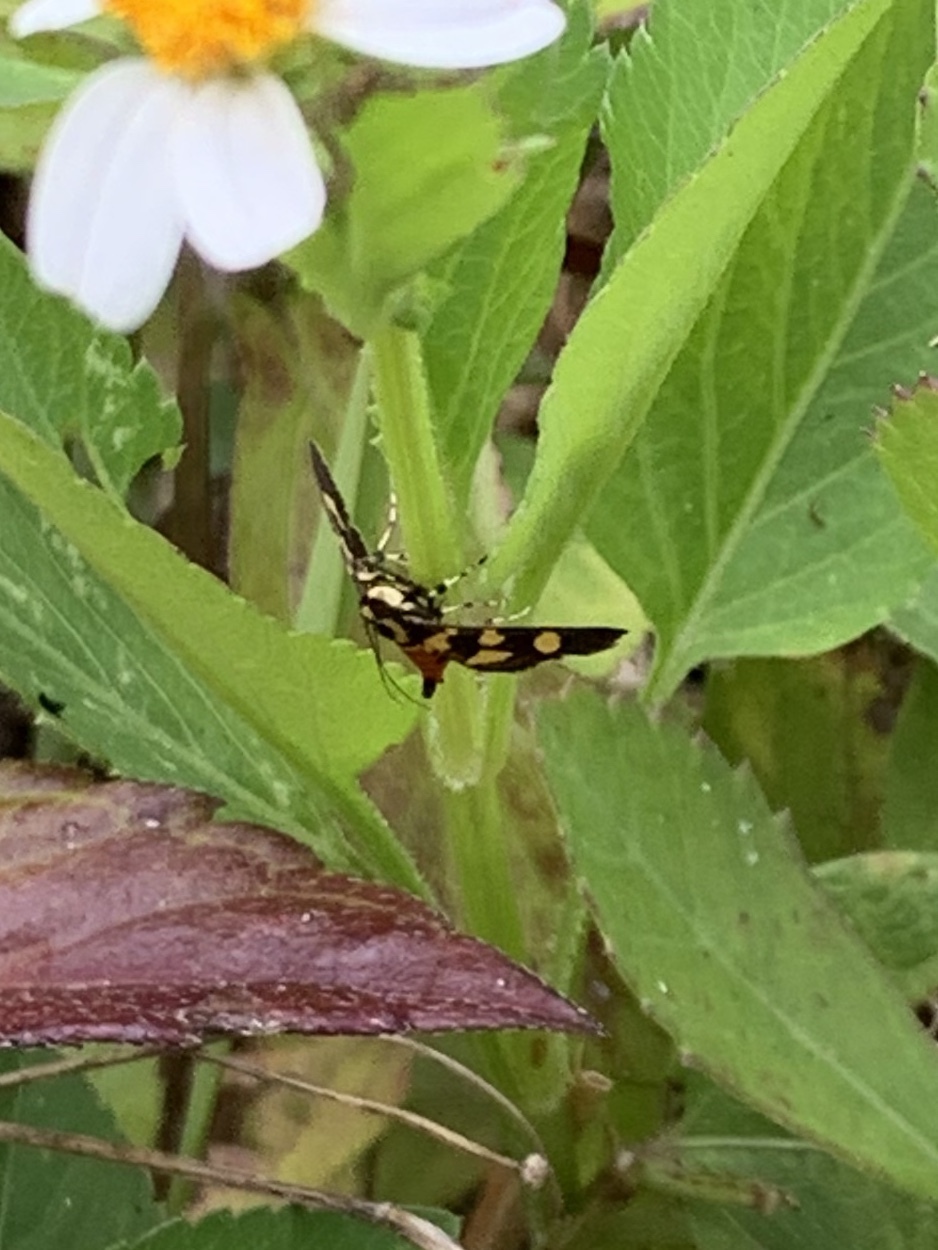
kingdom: Animalia
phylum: Arthropoda
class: Insecta
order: Lepidoptera
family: Crambidae
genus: Syngamia
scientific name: Syngamia florella
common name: Orange-spotted flower moth
